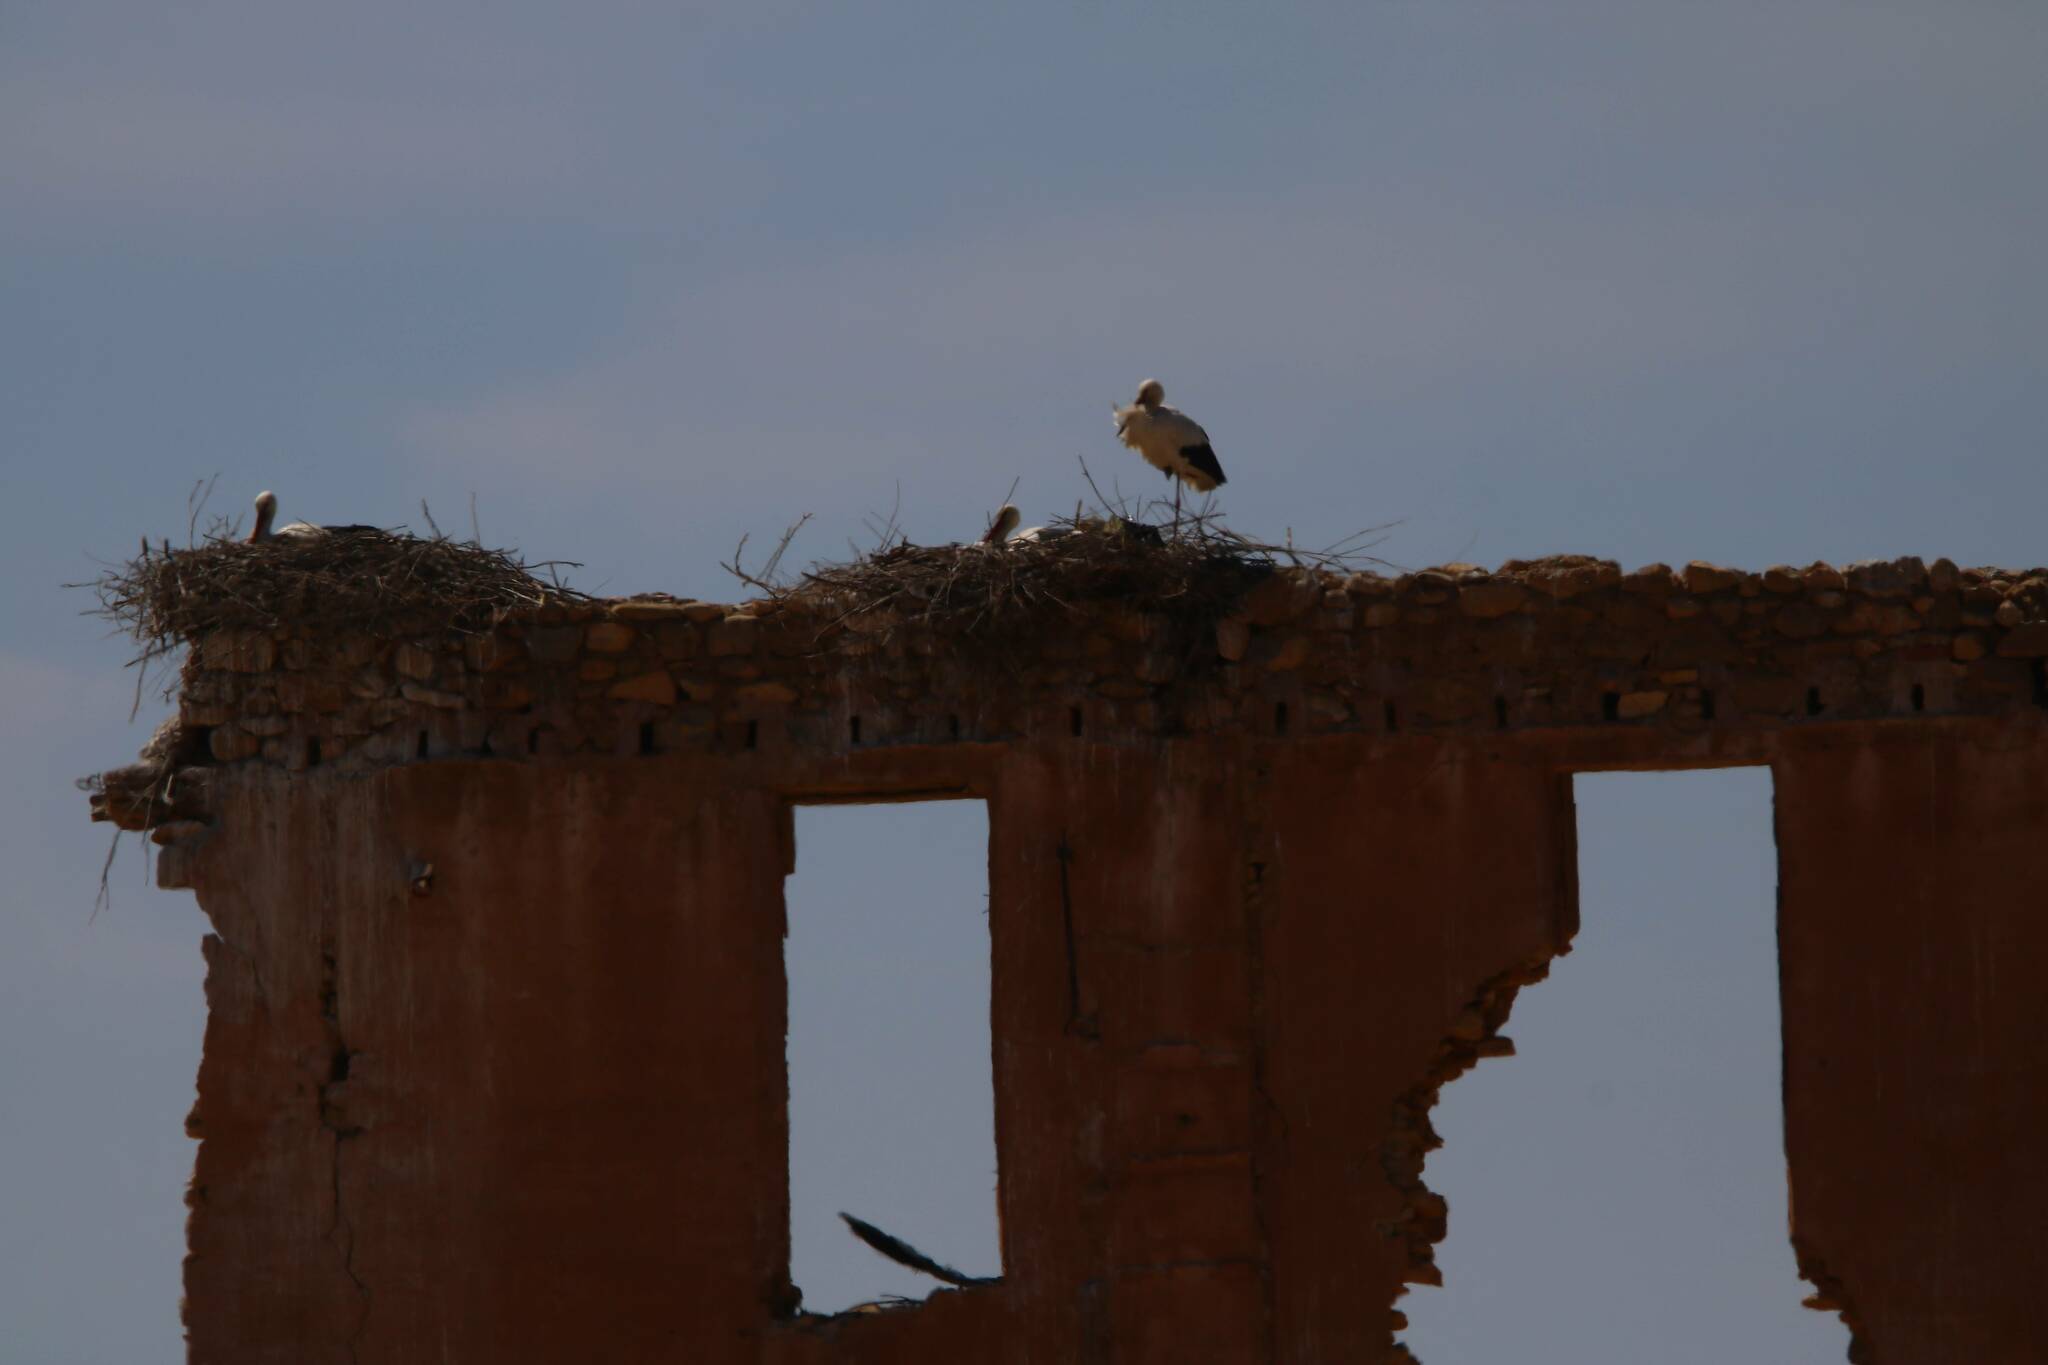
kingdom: Animalia
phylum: Chordata
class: Aves
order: Ciconiiformes
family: Ciconiidae
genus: Ciconia
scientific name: Ciconia ciconia
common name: White stork
